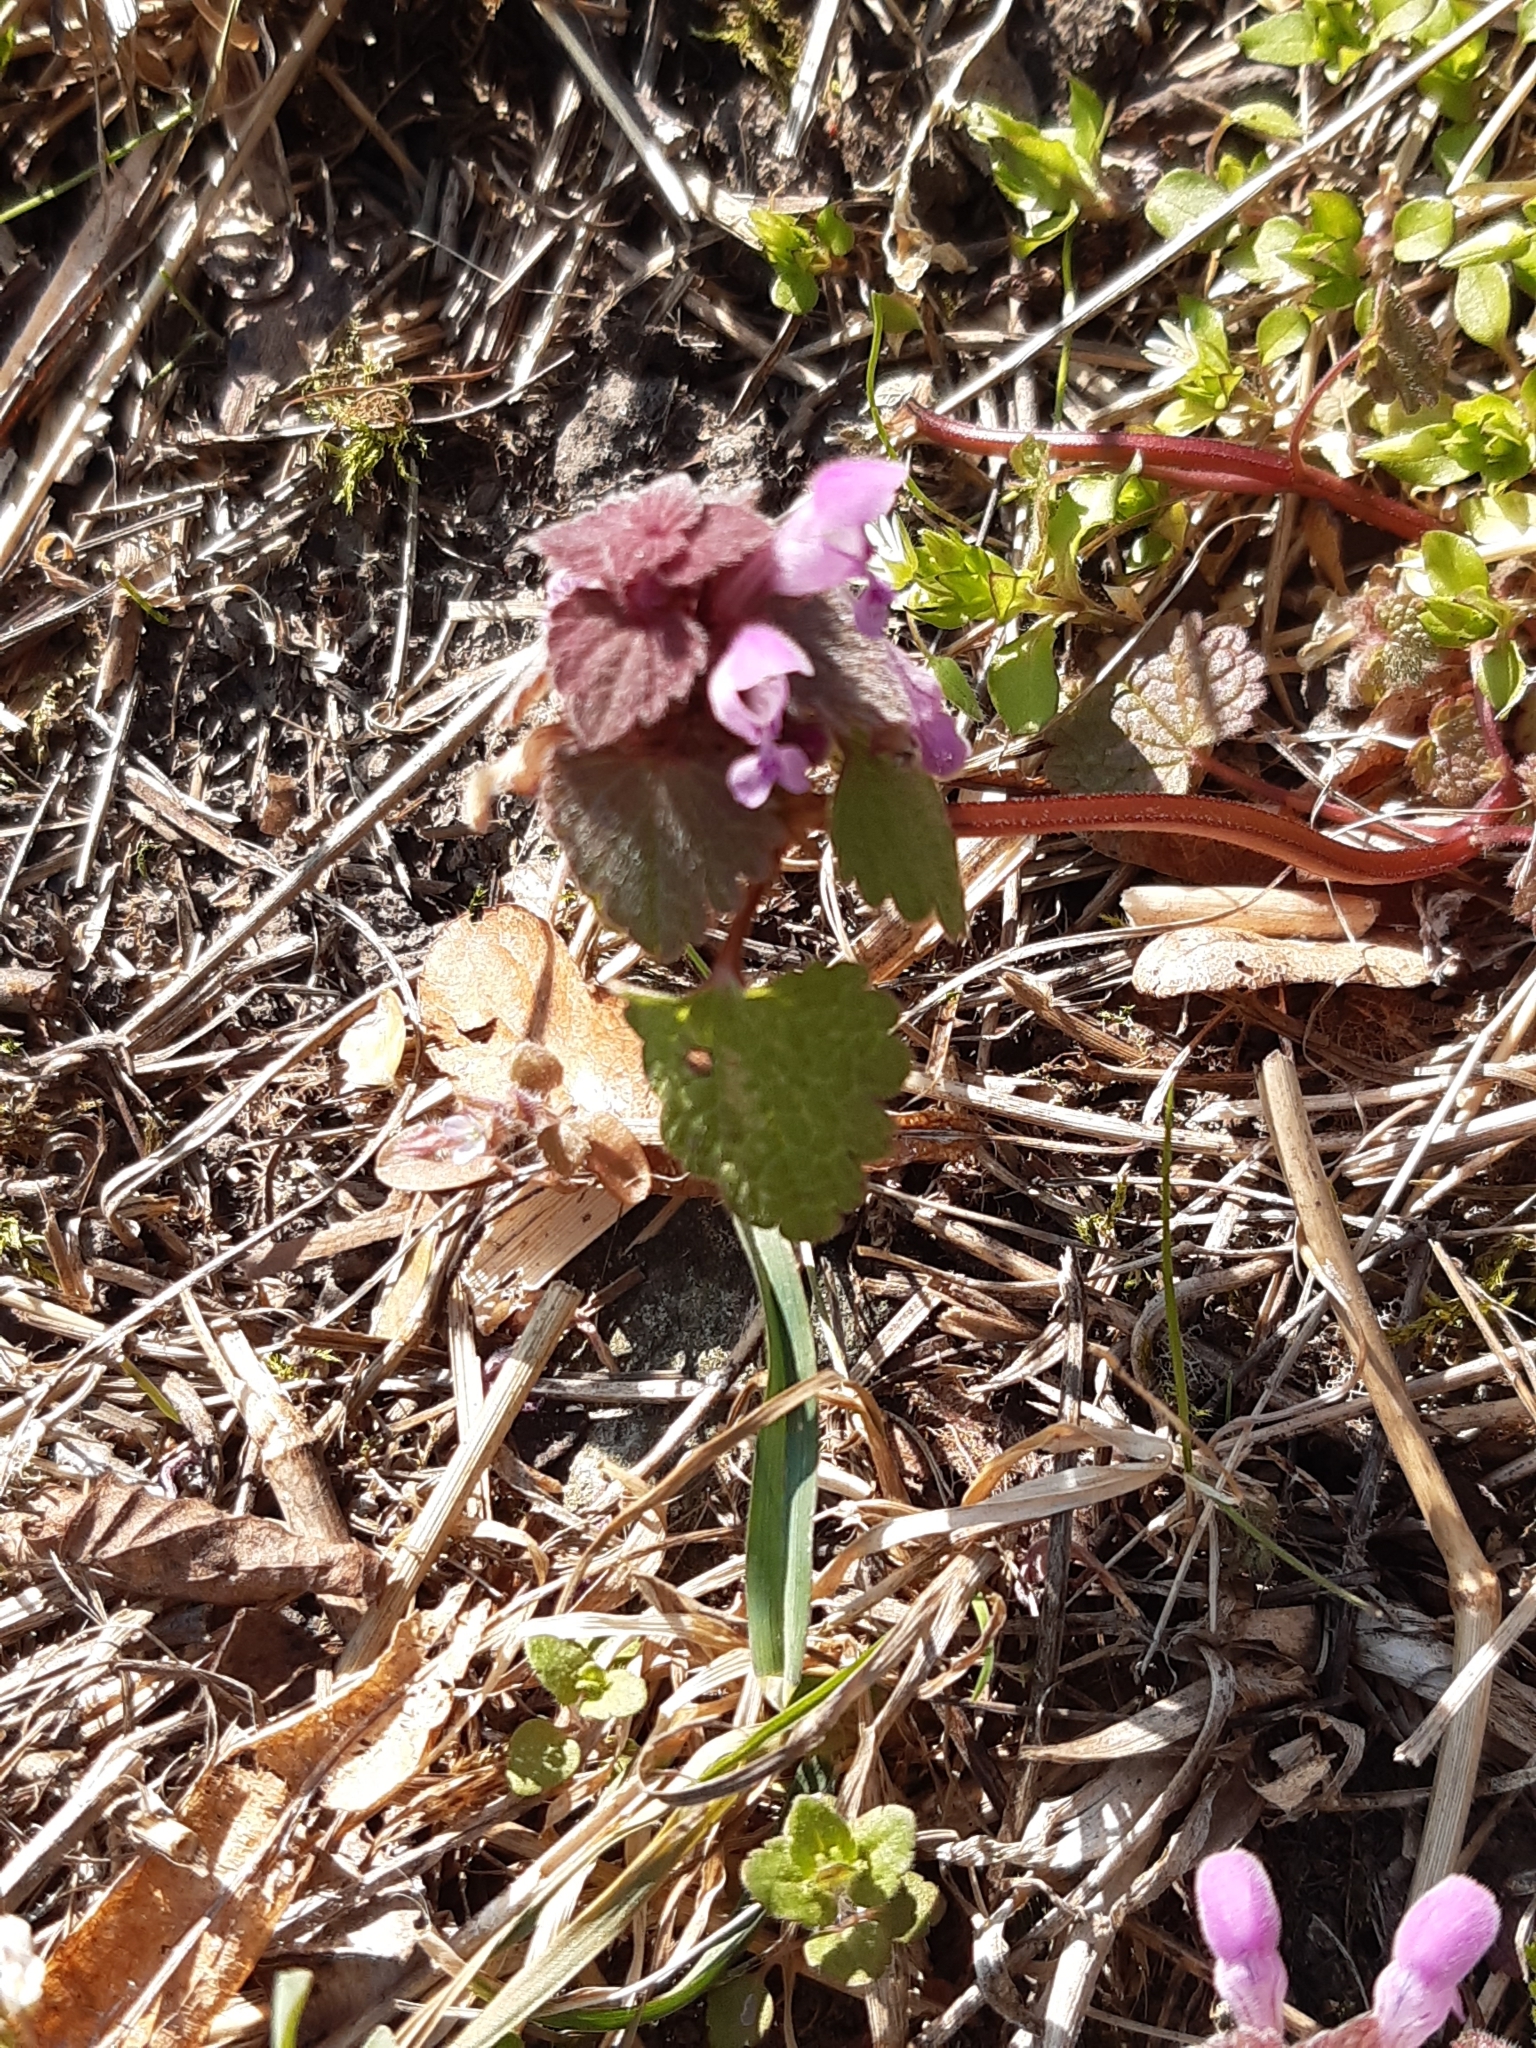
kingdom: Plantae
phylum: Tracheophyta
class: Magnoliopsida
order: Lamiales
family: Lamiaceae
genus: Lamium
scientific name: Lamium purpureum
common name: Red dead-nettle
